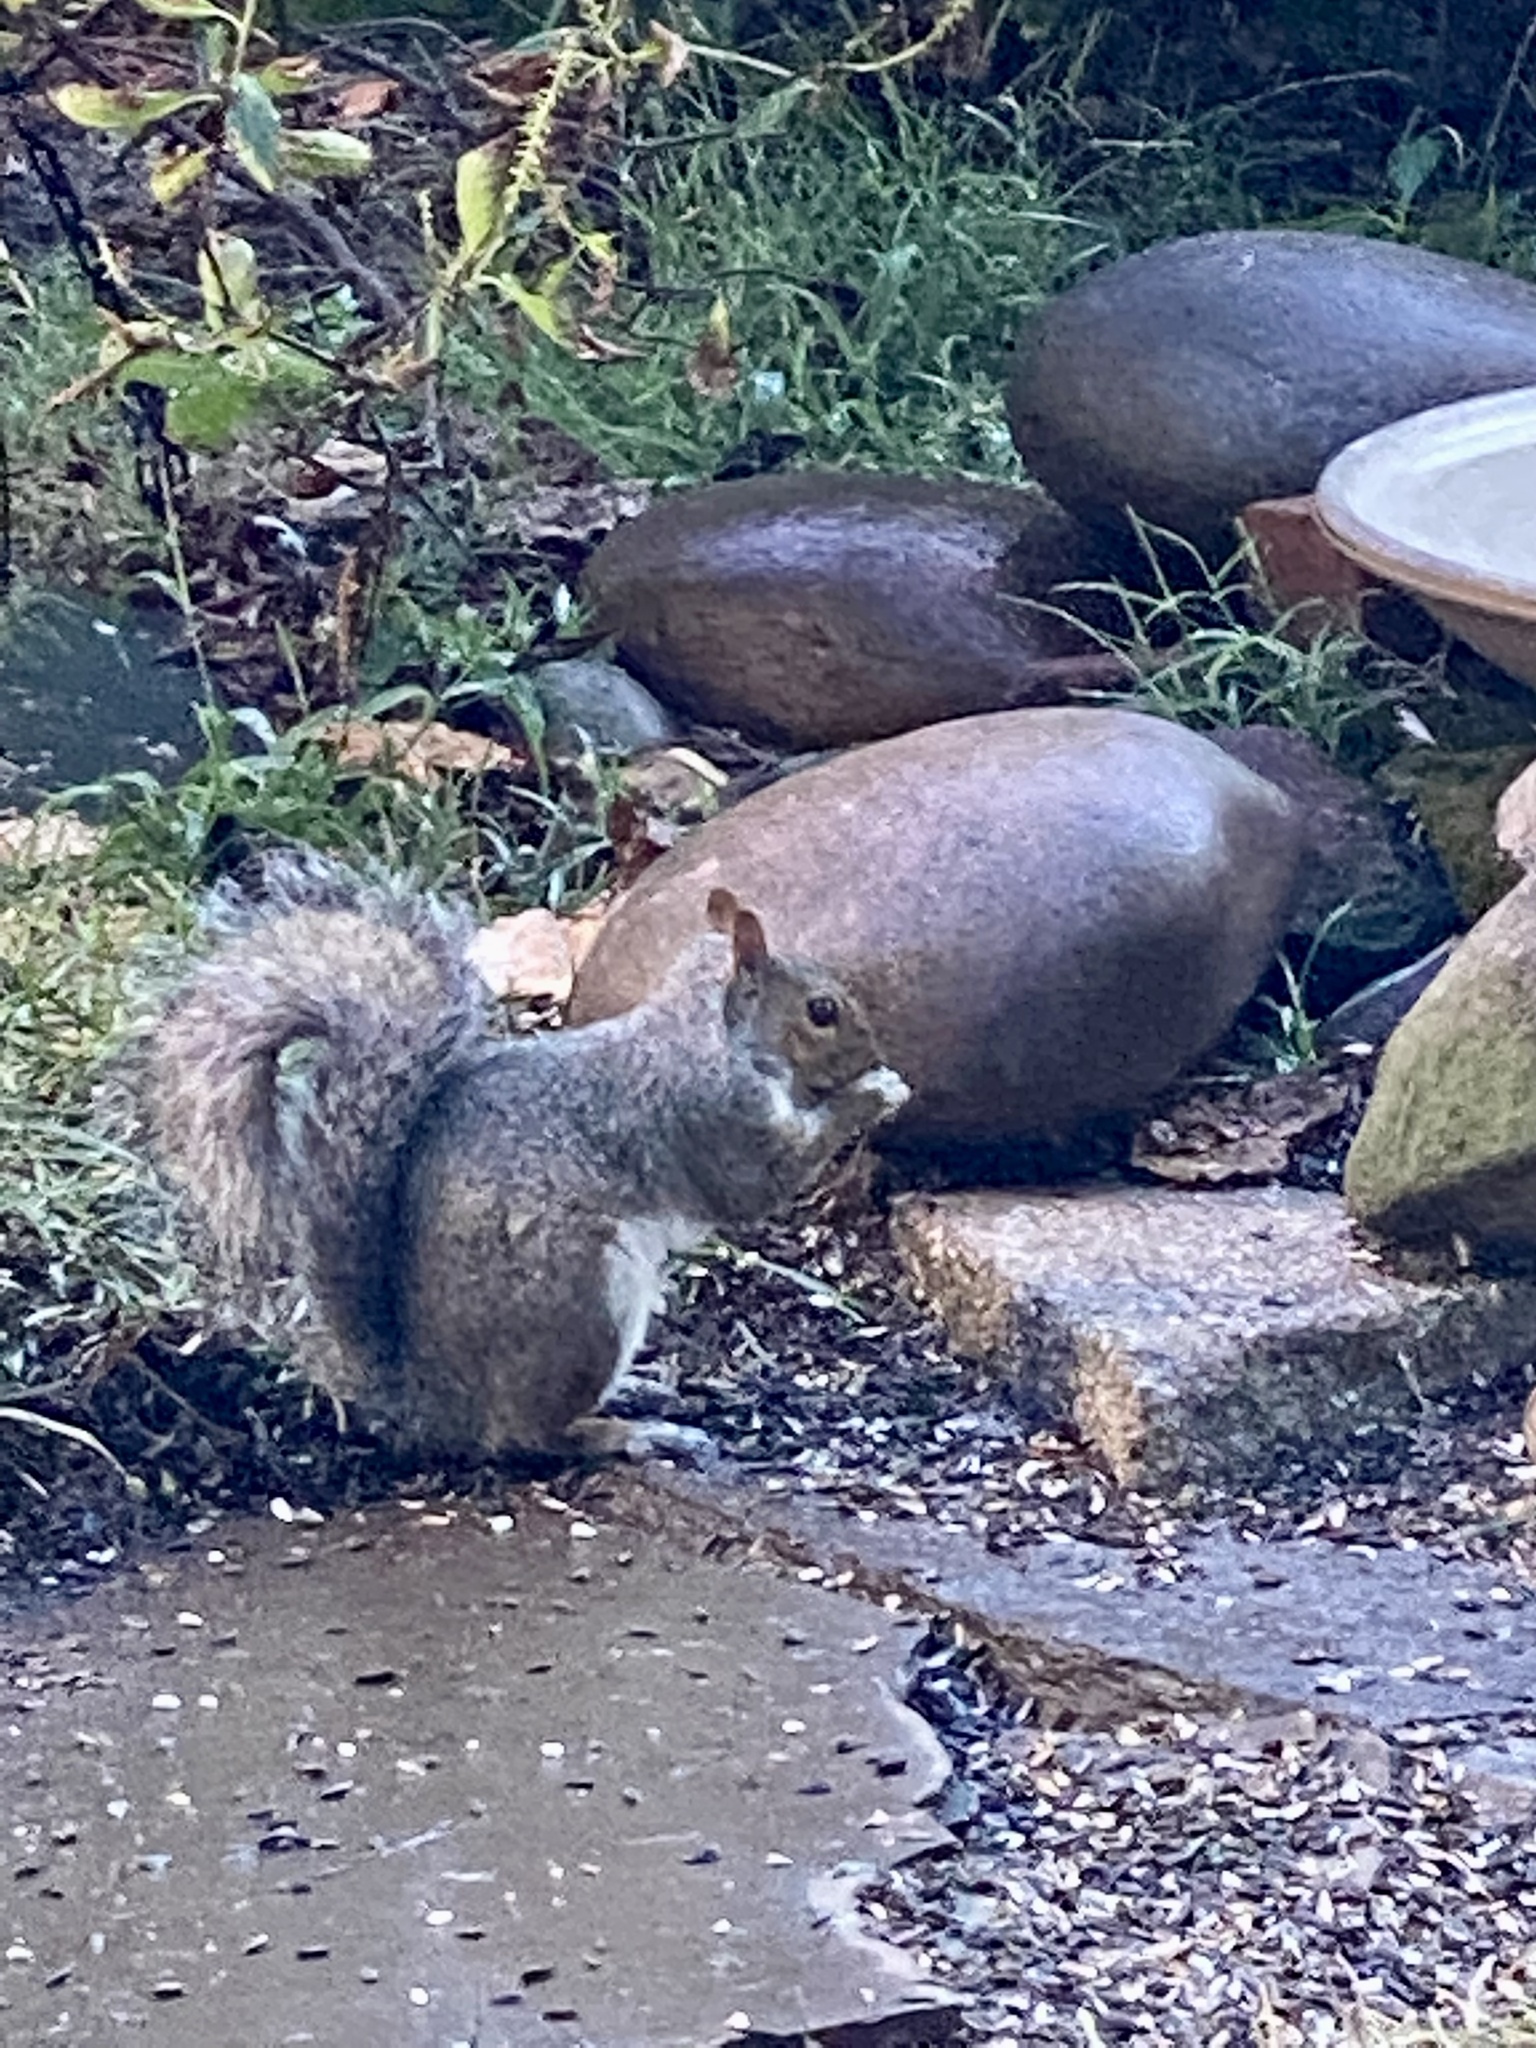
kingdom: Animalia
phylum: Chordata
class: Mammalia
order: Rodentia
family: Sciuridae
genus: Sciurus
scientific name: Sciurus carolinensis
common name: Eastern gray squirrel
